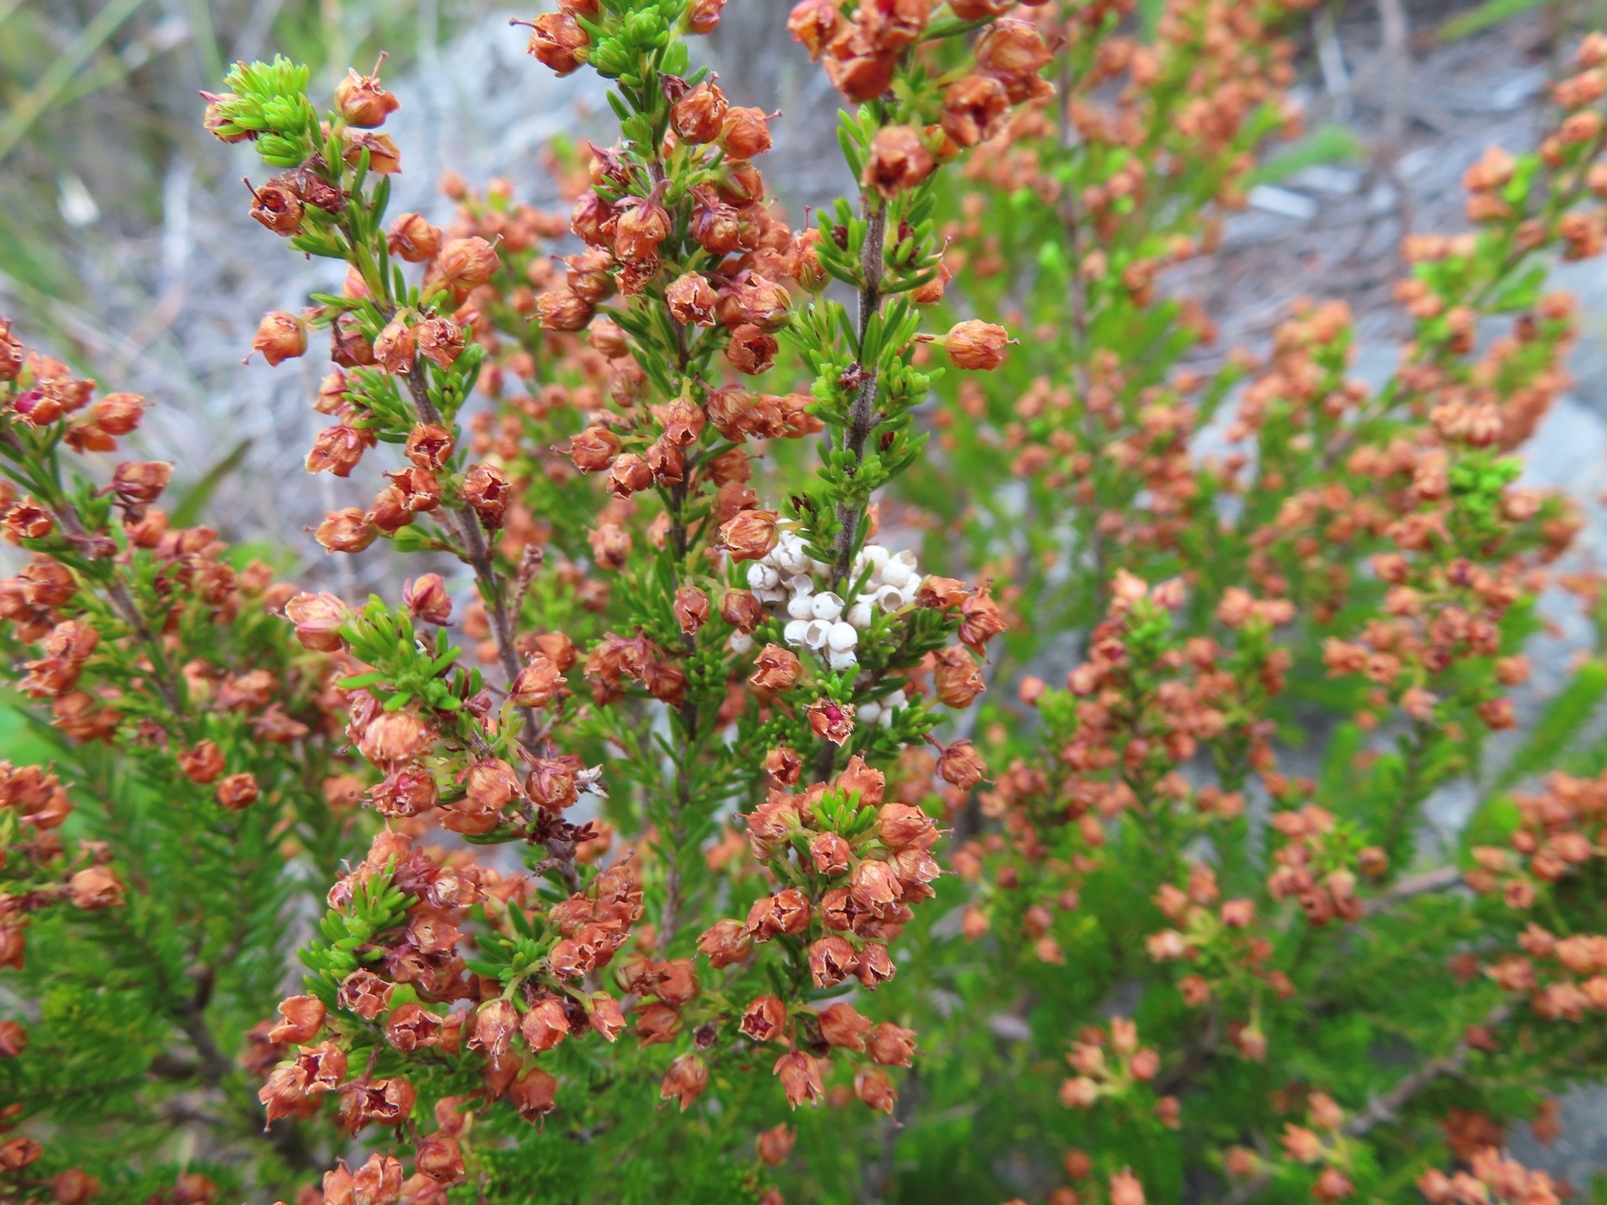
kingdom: Animalia
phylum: Arthropoda
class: Insecta
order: Lepidoptera
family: Lasiocampidae
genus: Eutricha
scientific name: Eutricha capensis
